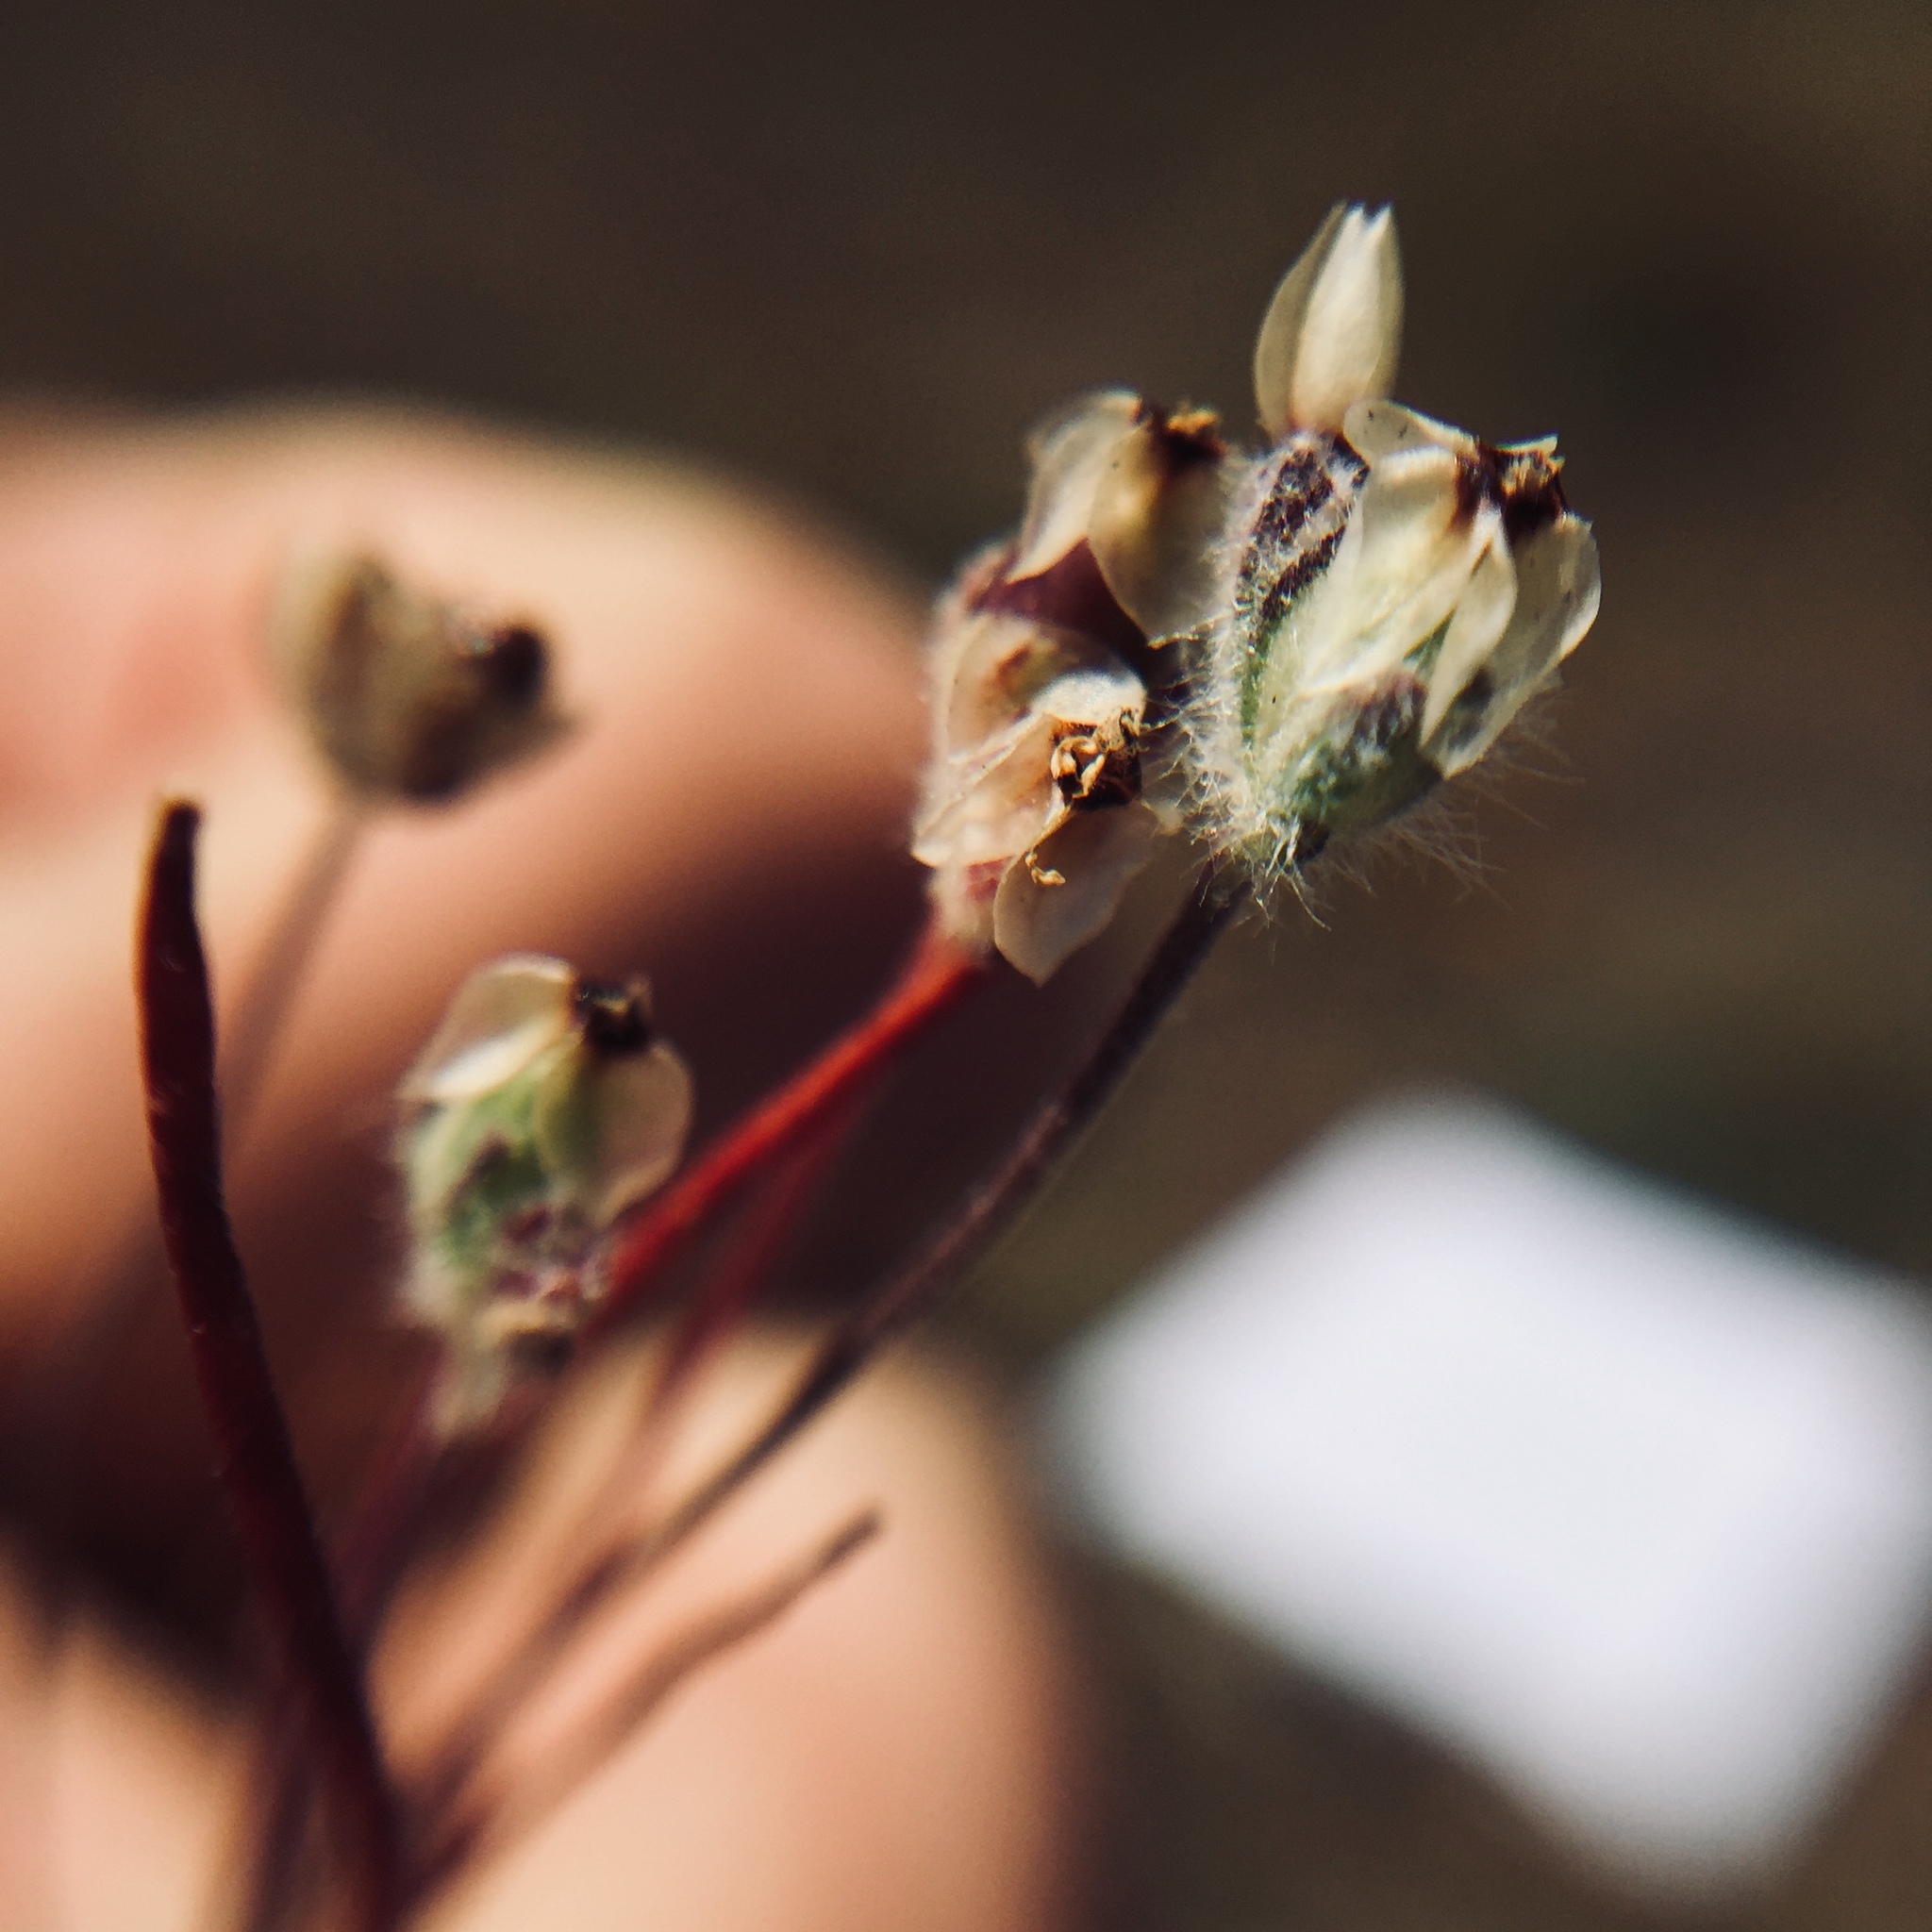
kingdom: Plantae
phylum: Tracheophyta
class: Magnoliopsida
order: Lamiales
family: Plantaginaceae
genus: Plantago
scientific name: Plantago erecta
